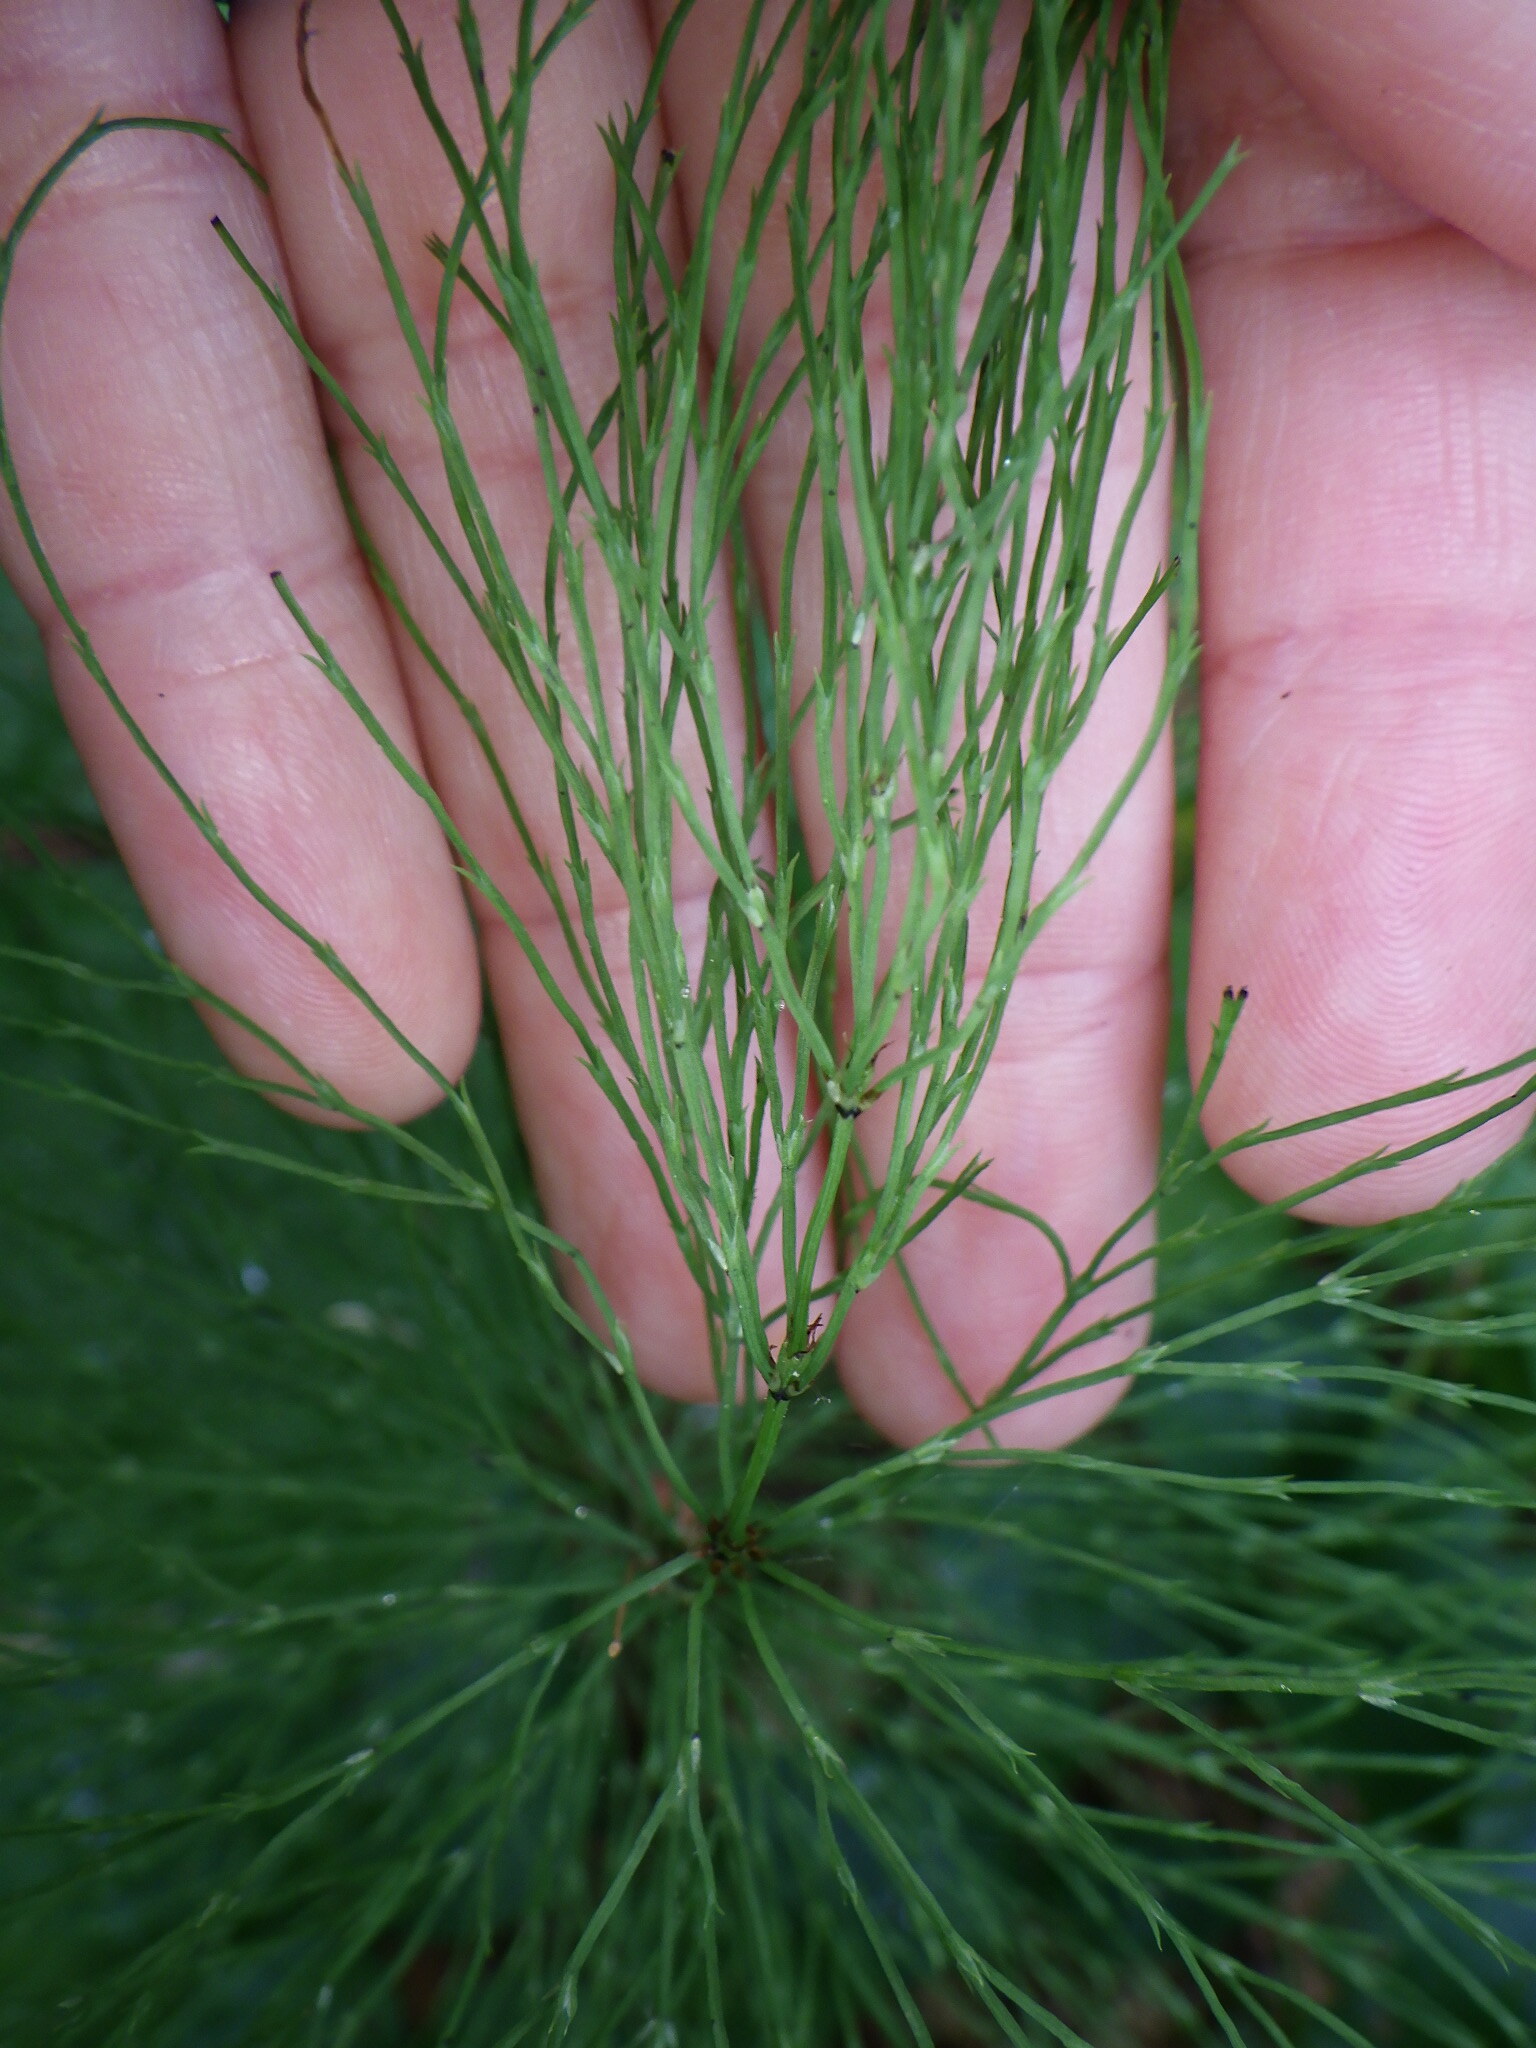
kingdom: Plantae
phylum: Tracheophyta
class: Polypodiopsida
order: Equisetales
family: Equisetaceae
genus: Equisetum
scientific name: Equisetum sylvaticum
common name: Wood horsetail
